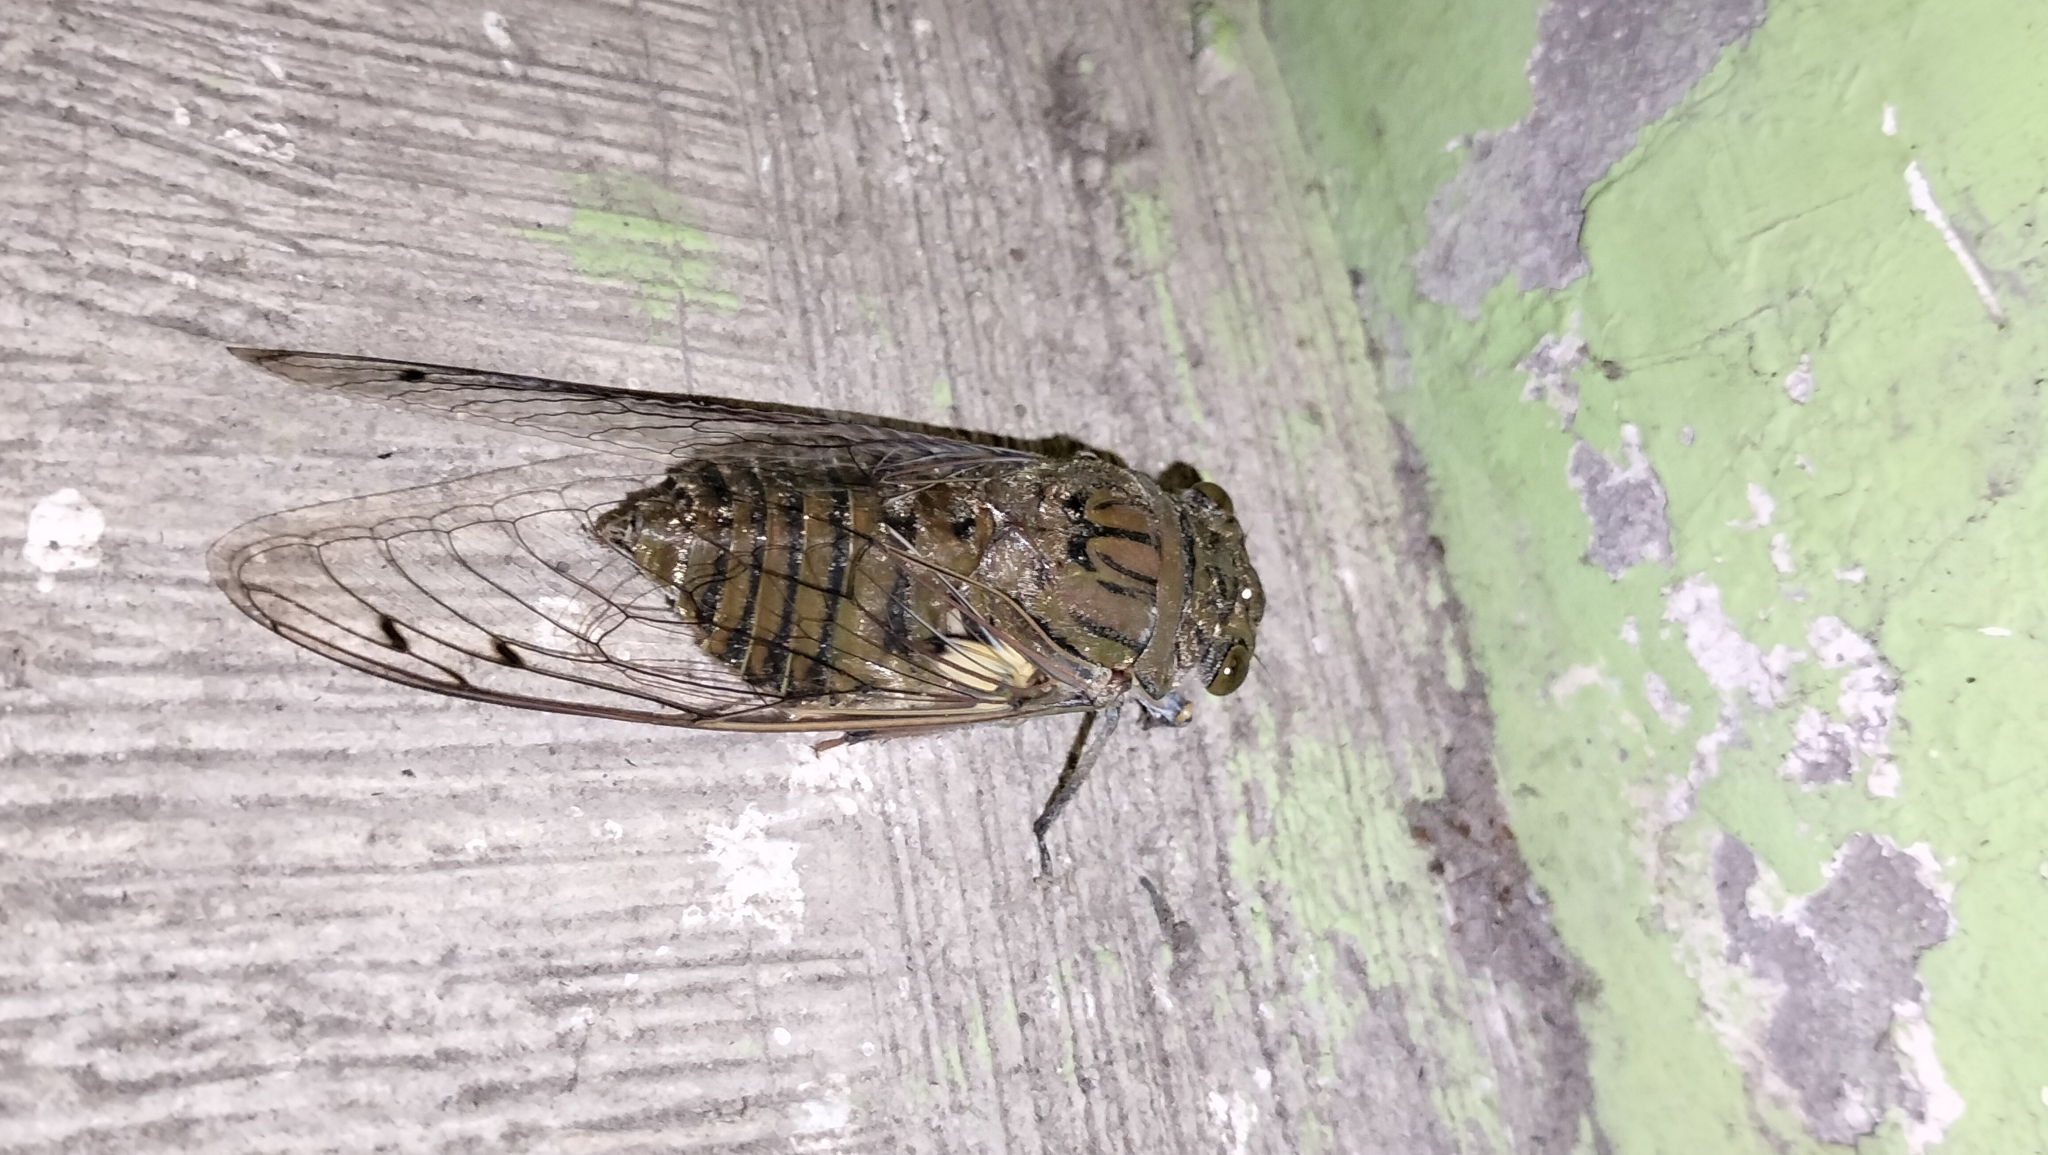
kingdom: Animalia
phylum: Arthropoda
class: Insecta
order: Hemiptera
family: Cicadidae
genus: Quesada
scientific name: Quesada gigas
